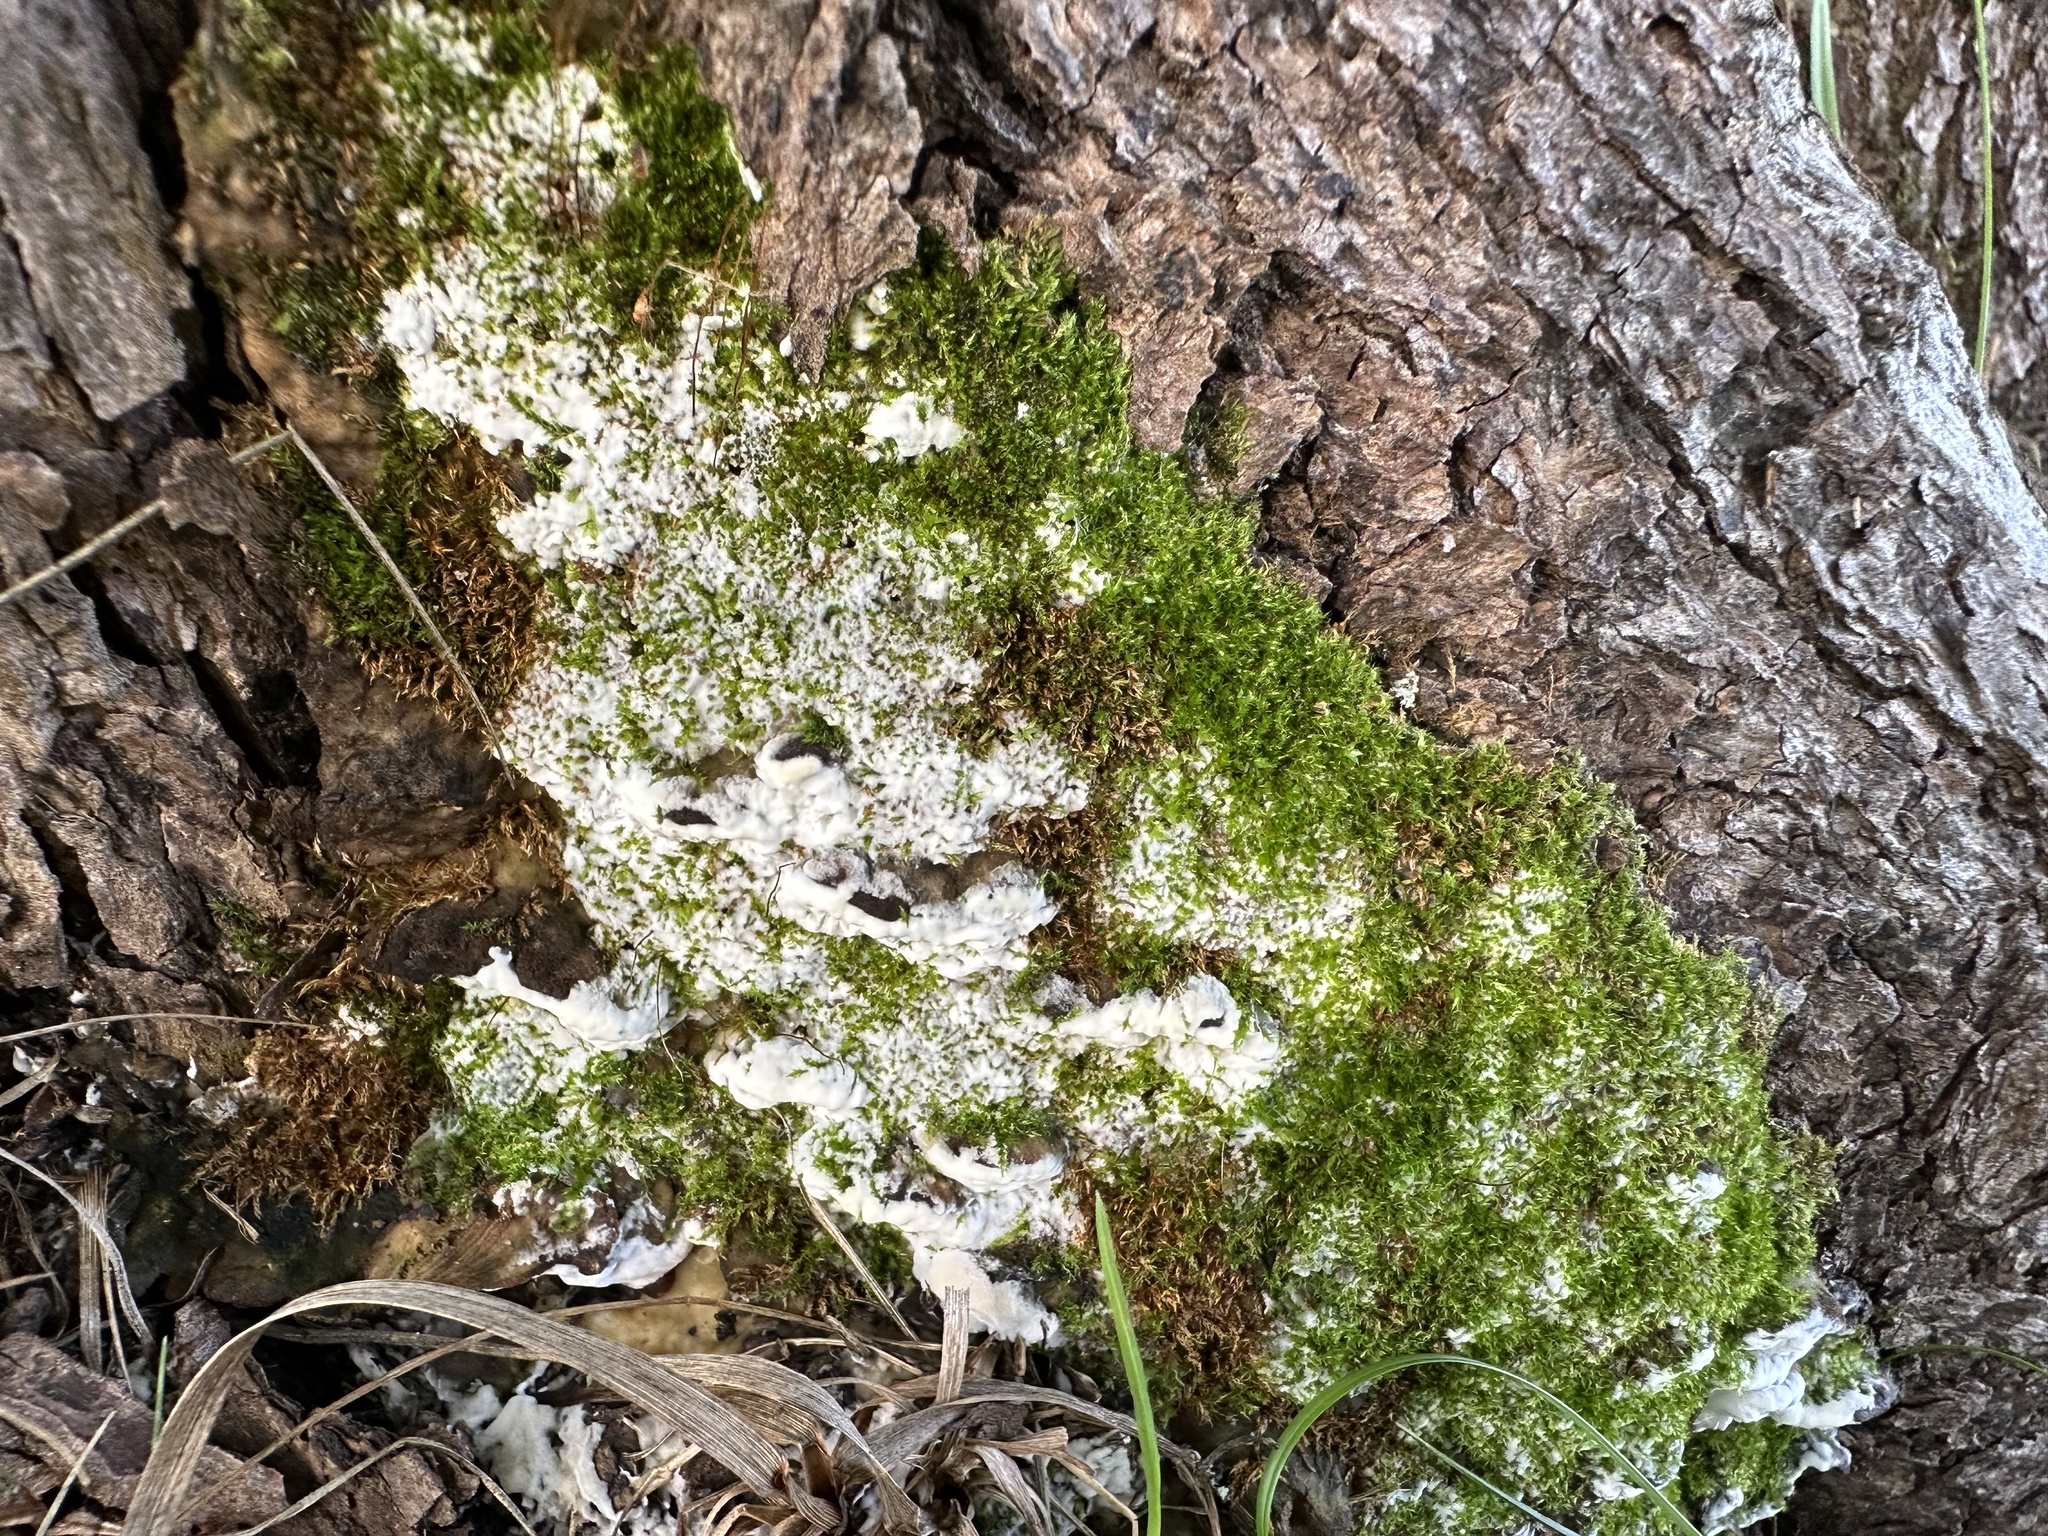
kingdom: Fungi
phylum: Basidiomycota
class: Agaricomycetes
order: Hymenochaetales
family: Oxyporaceae
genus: Oxyporus
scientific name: Oxyporus populinus
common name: Poplar bracket
